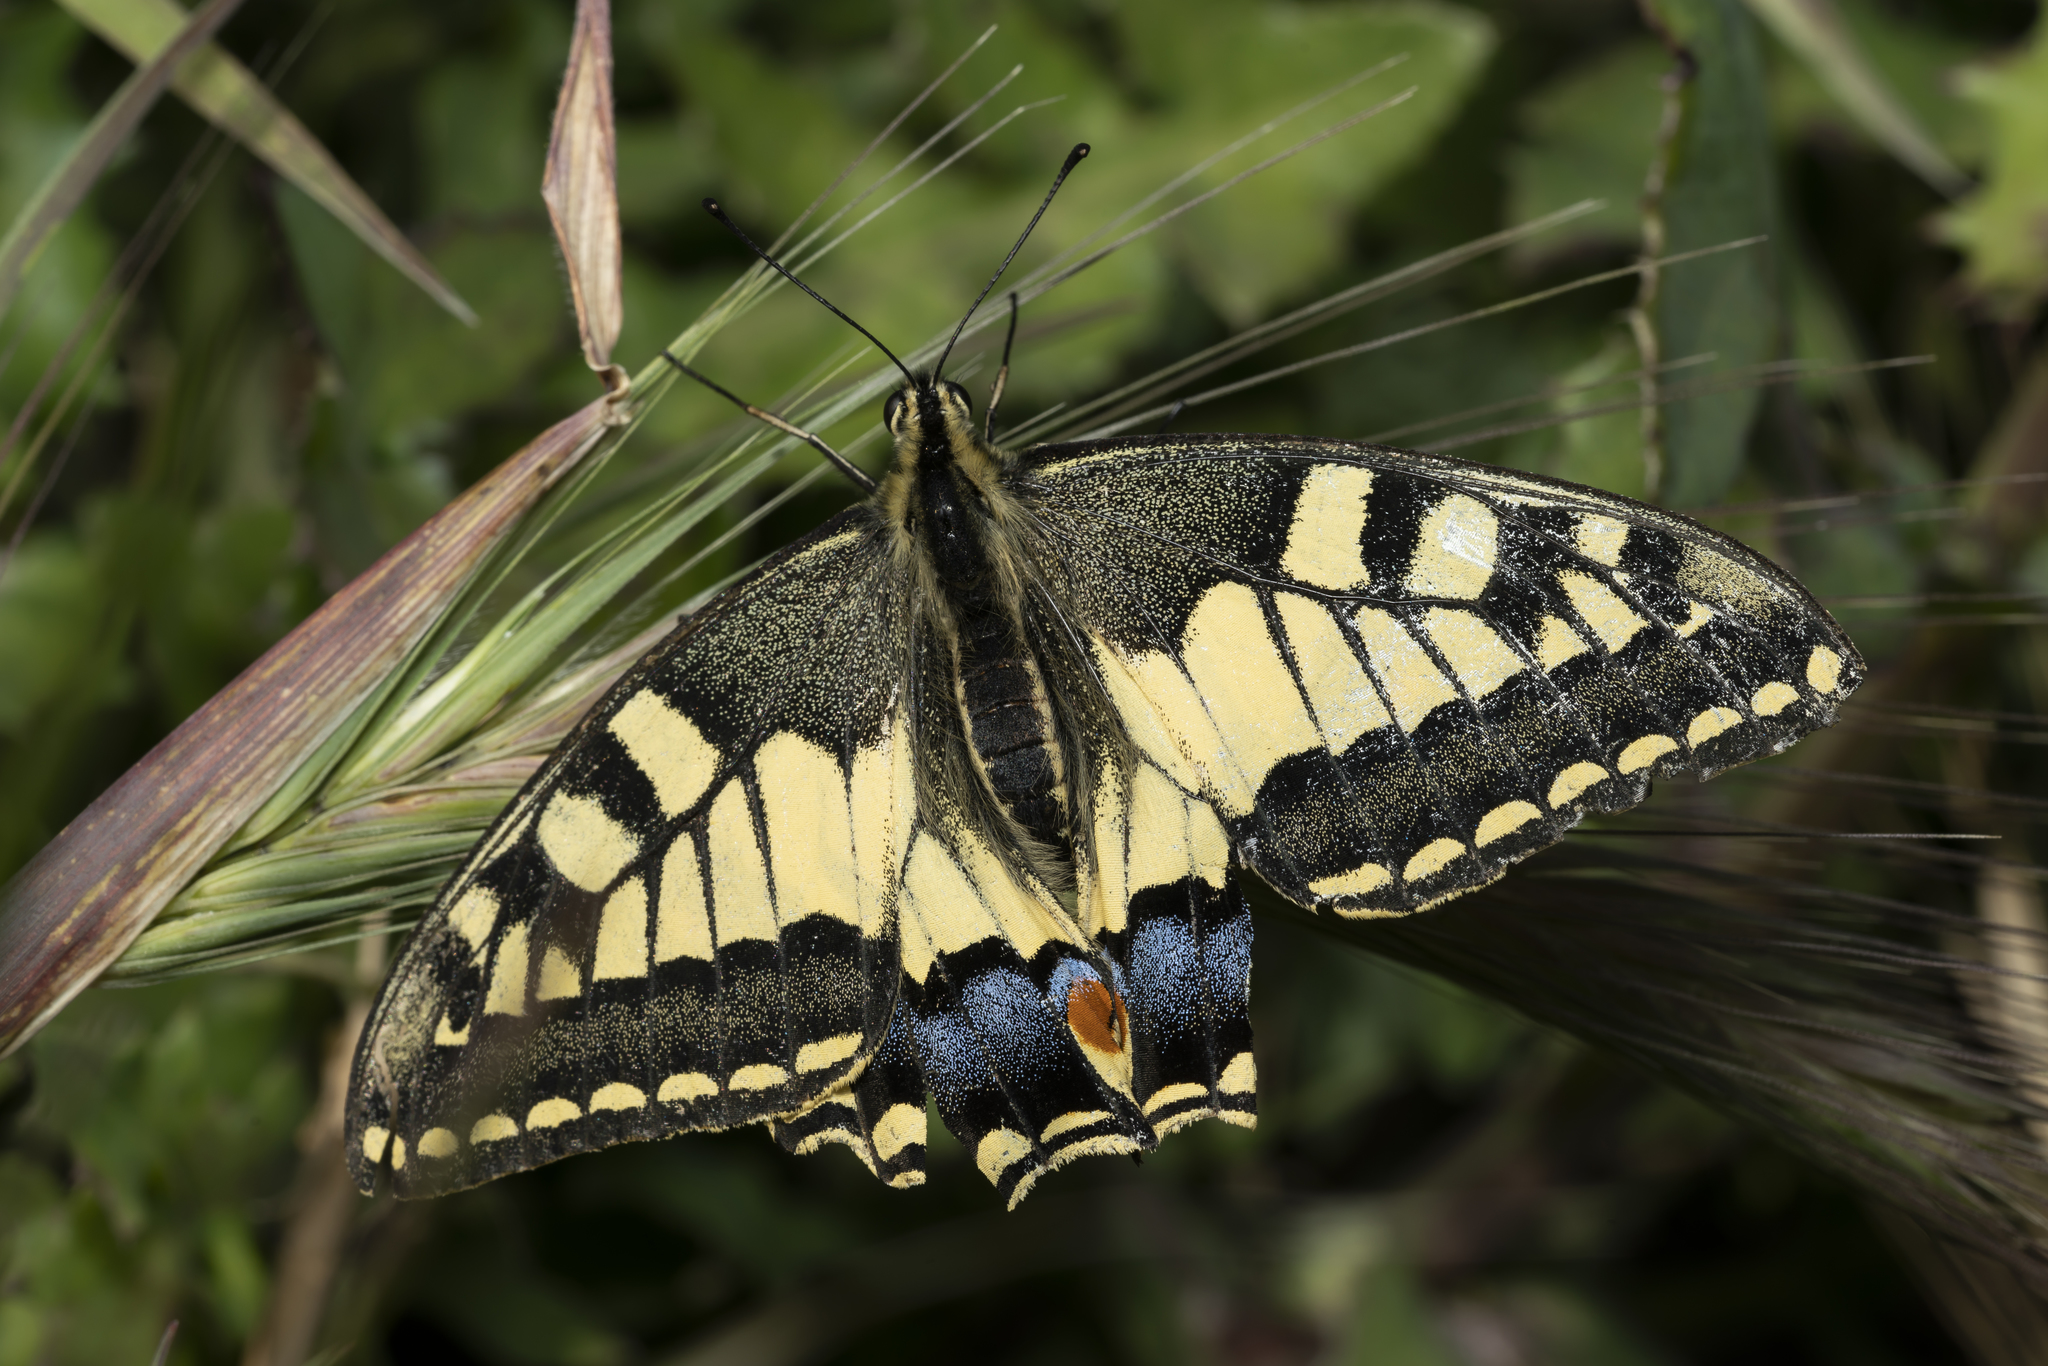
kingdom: Animalia
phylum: Arthropoda
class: Insecta
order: Lepidoptera
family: Papilionidae
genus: Papilio
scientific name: Papilio machaon
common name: Swallowtail
